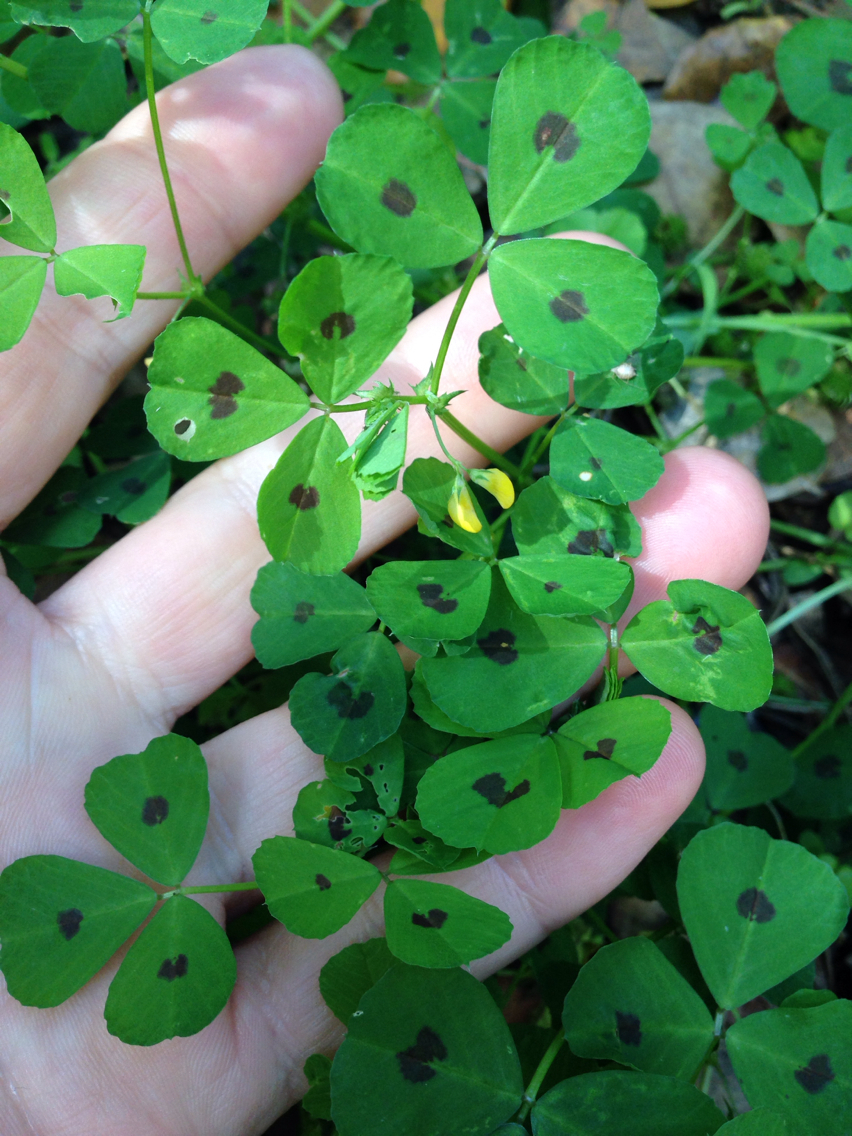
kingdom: Plantae
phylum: Tracheophyta
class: Magnoliopsida
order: Fabales
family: Fabaceae
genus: Medicago
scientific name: Medicago arabica
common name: Spotted medick
